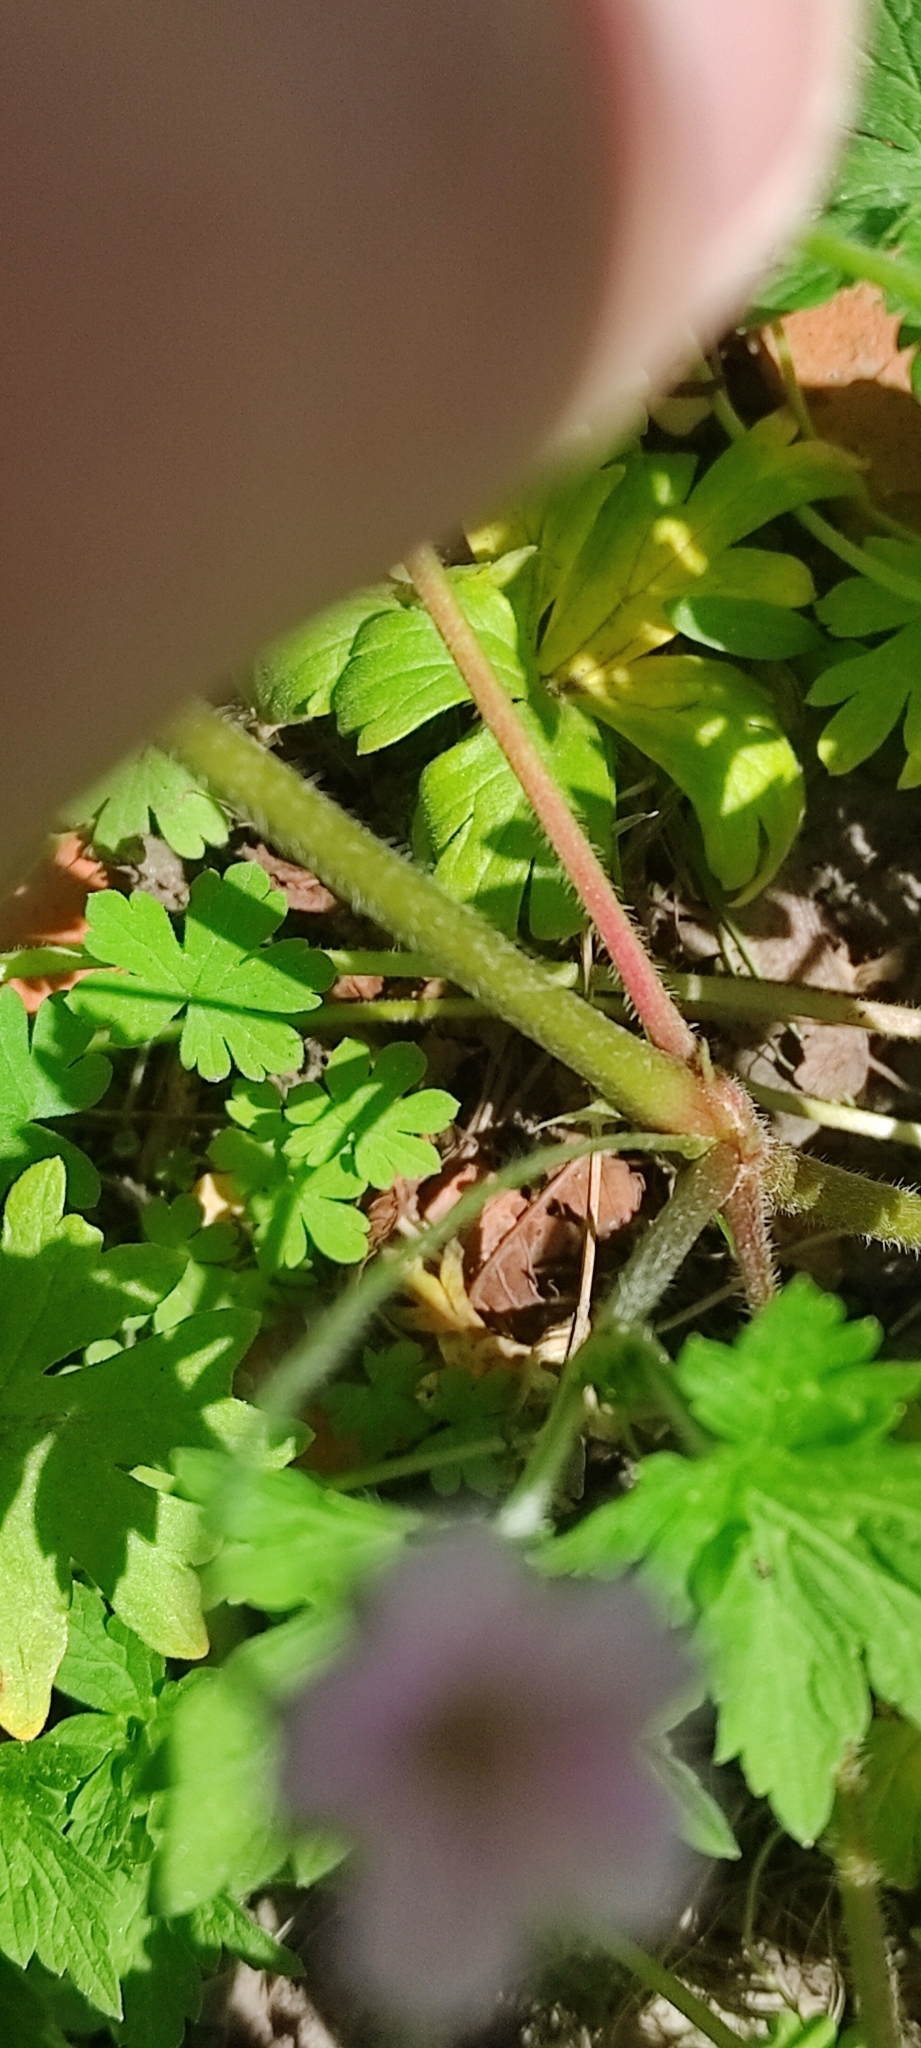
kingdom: Plantae
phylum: Tracheophyta
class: Magnoliopsida
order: Geraniales
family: Geraniaceae
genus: Geranium
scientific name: Geranium sibiricum
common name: Siberian crane's-bill
